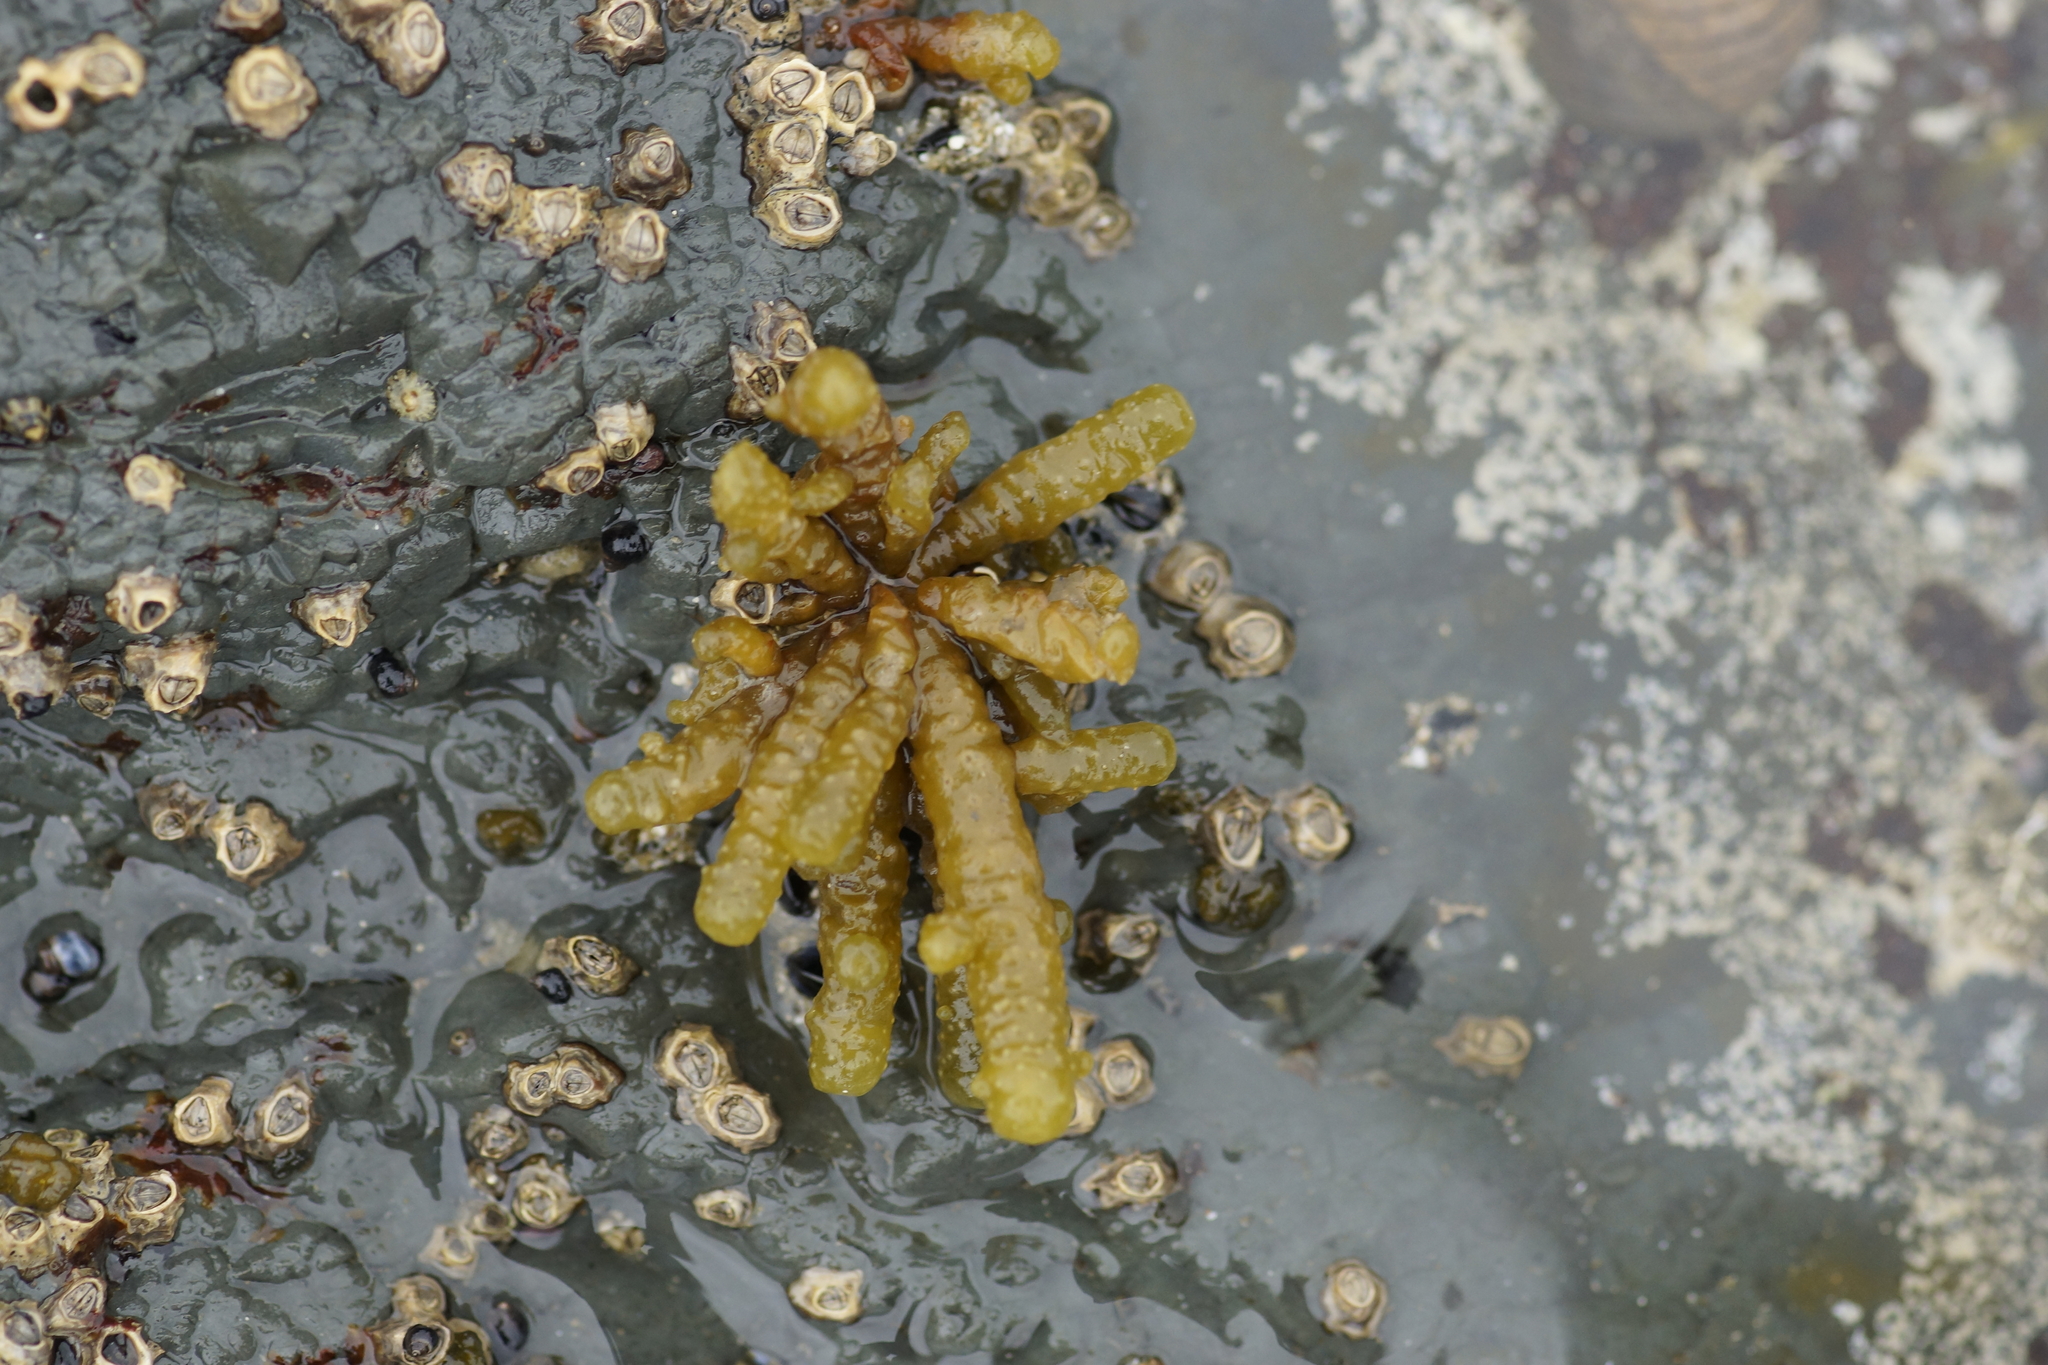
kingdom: Chromista
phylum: Ochrophyta
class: Phaeophyceae
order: Scytothamnales
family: Splachnidiaceae
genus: Splachnidium
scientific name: Splachnidium rugosum
